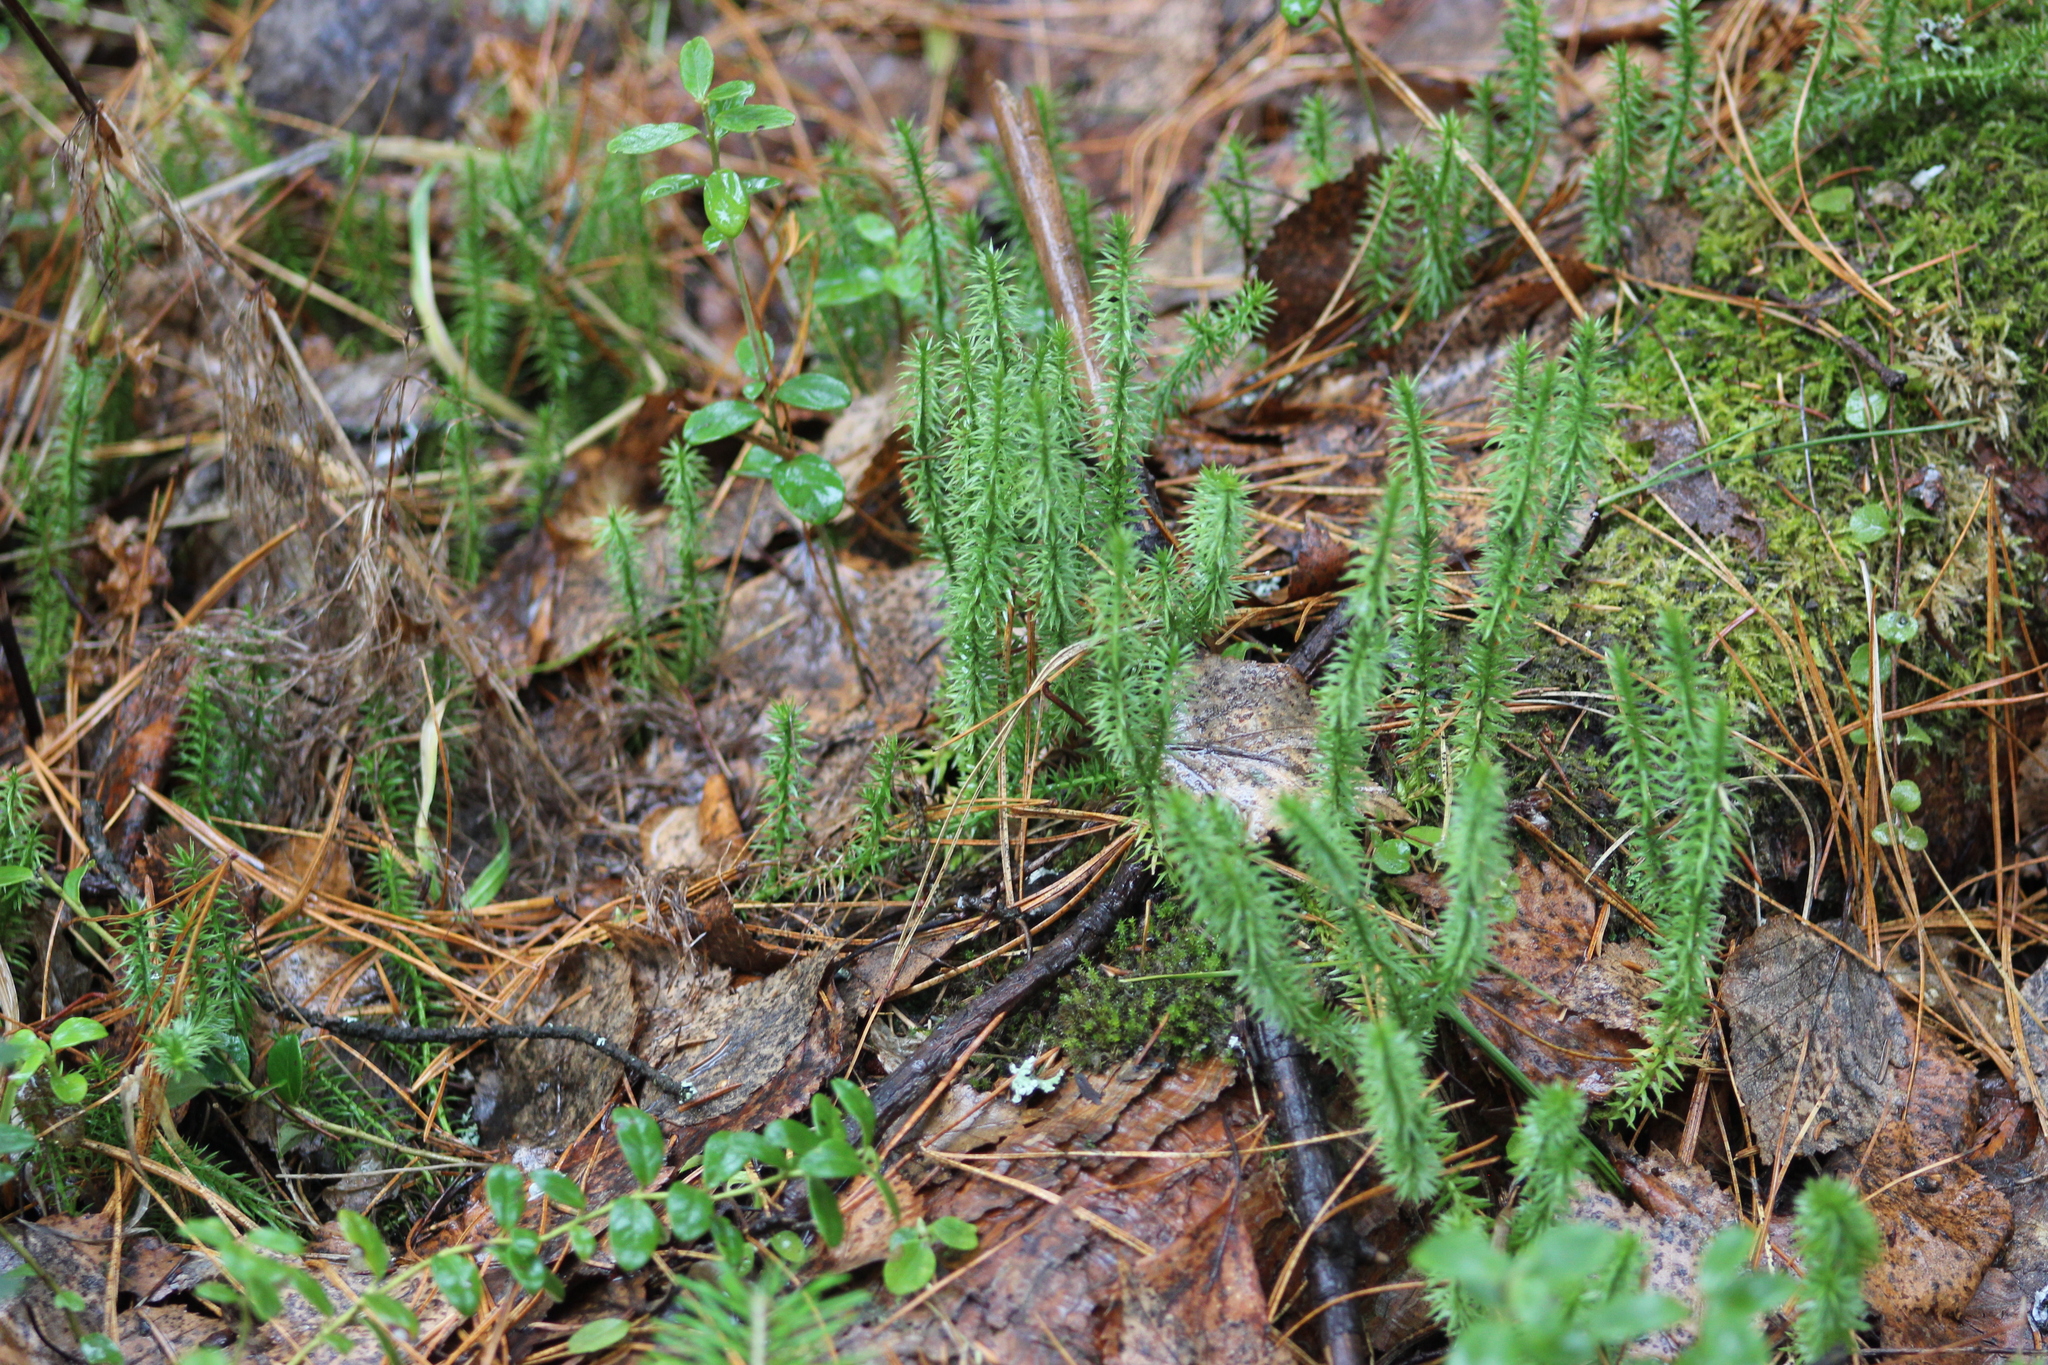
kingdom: Plantae
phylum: Tracheophyta
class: Lycopodiopsida
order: Lycopodiales
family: Lycopodiaceae
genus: Spinulum
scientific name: Spinulum annotinum
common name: Interrupted club-moss
